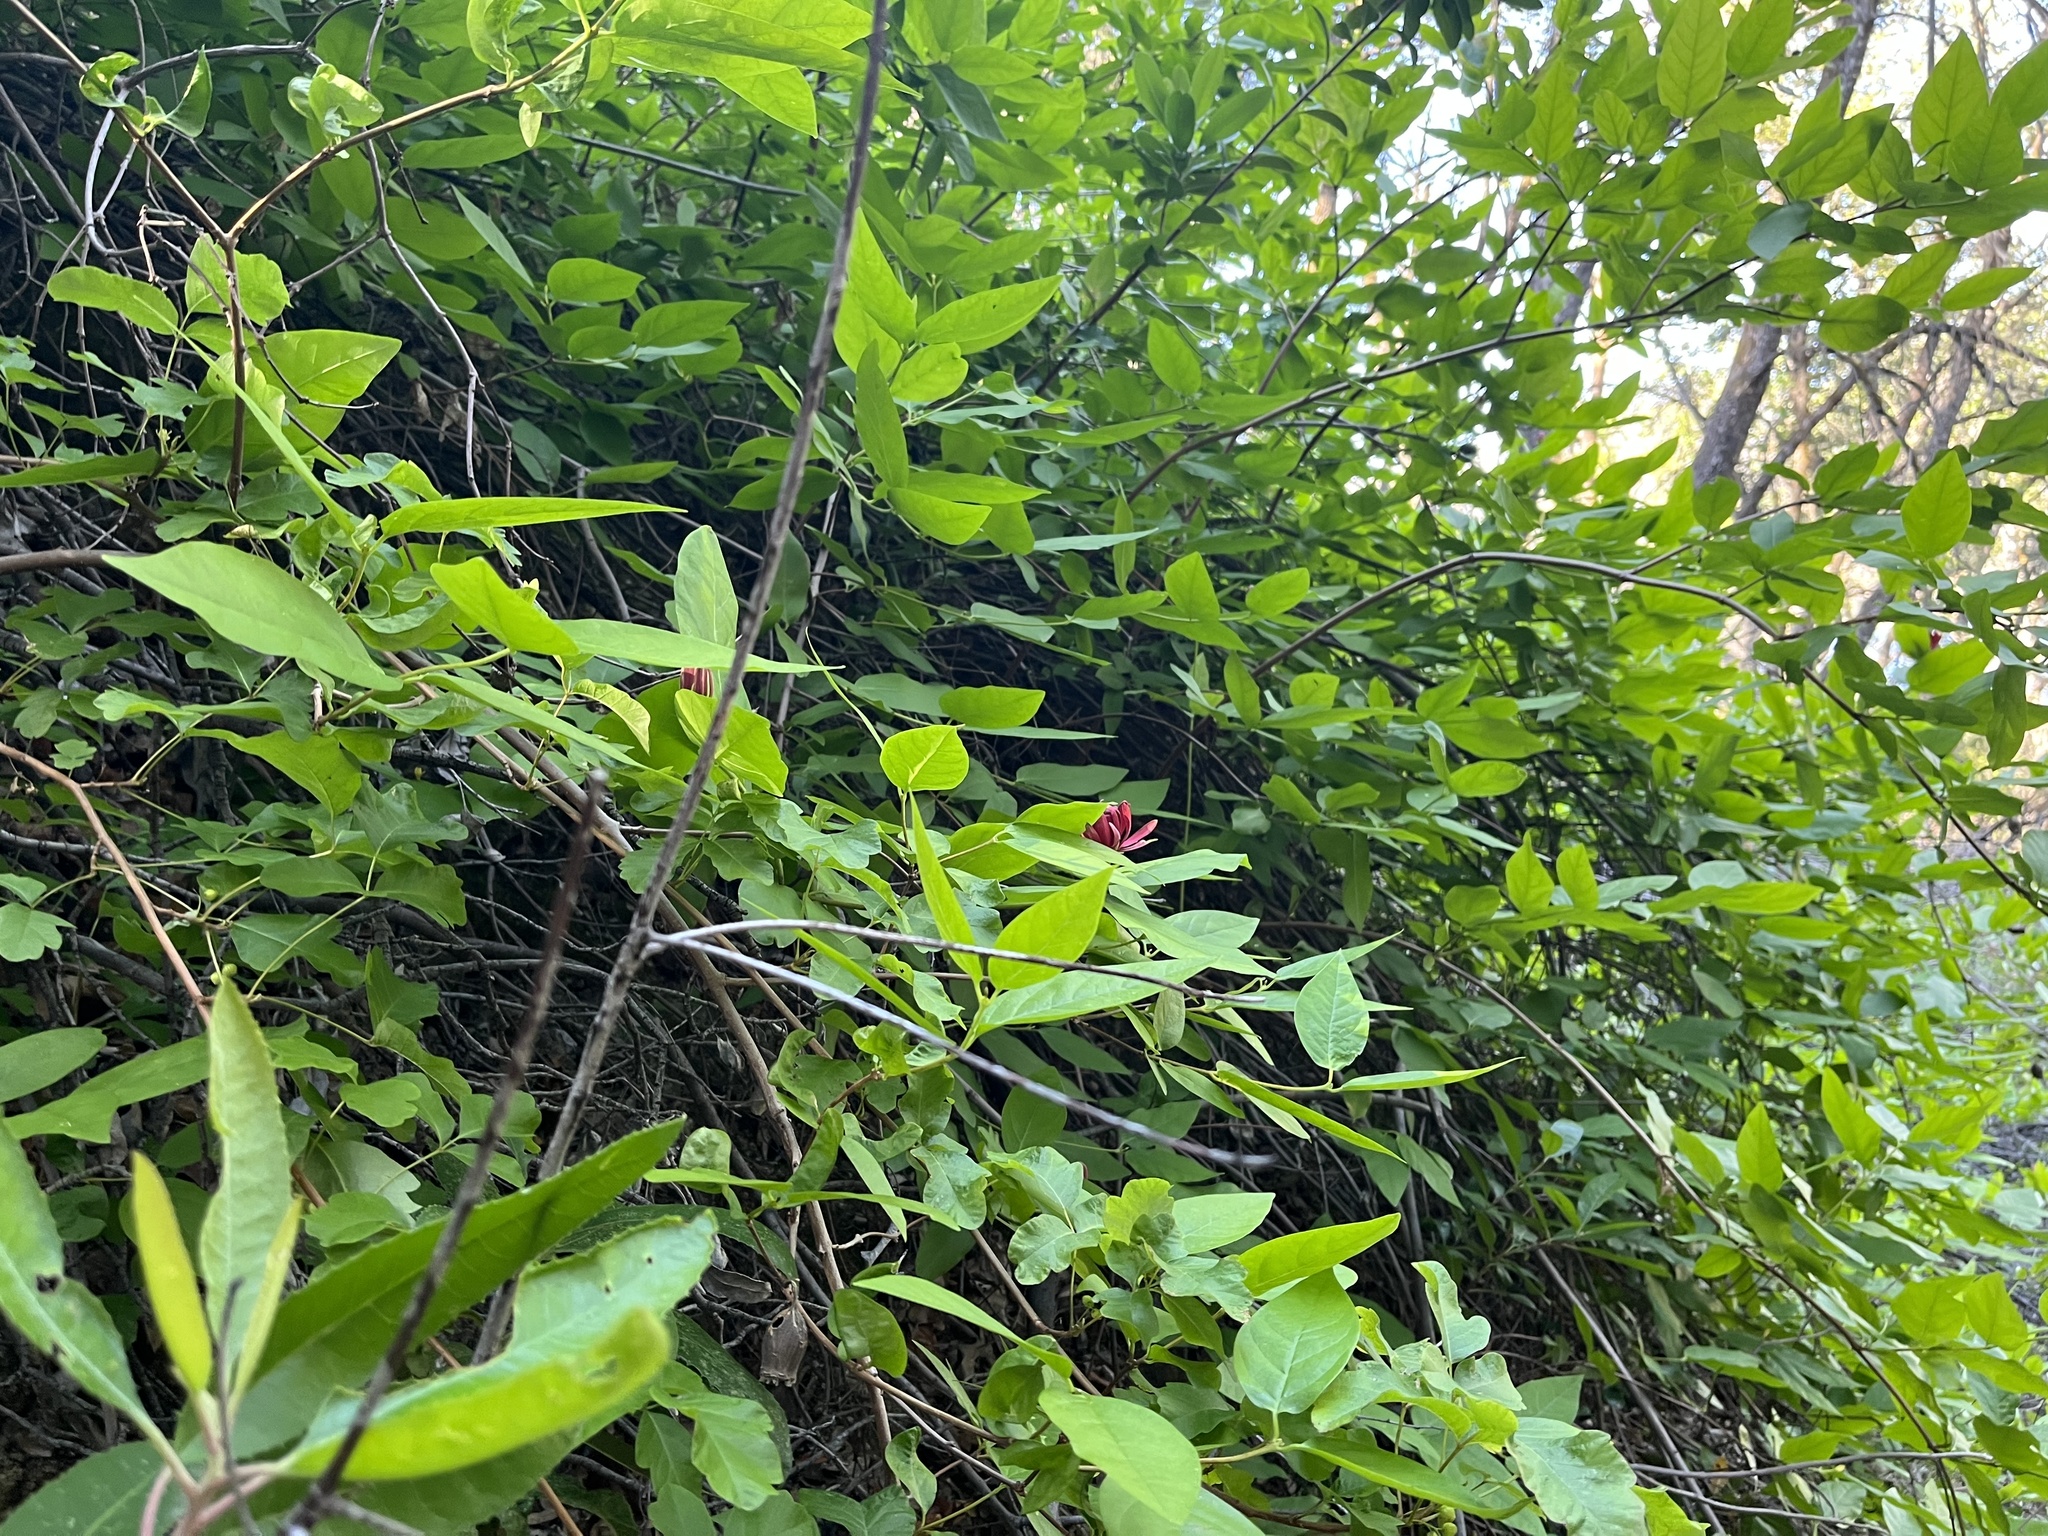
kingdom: Plantae
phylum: Tracheophyta
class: Magnoliopsida
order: Laurales
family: Calycanthaceae
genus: Calycanthus
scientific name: Calycanthus occidentalis
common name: California spicebush
